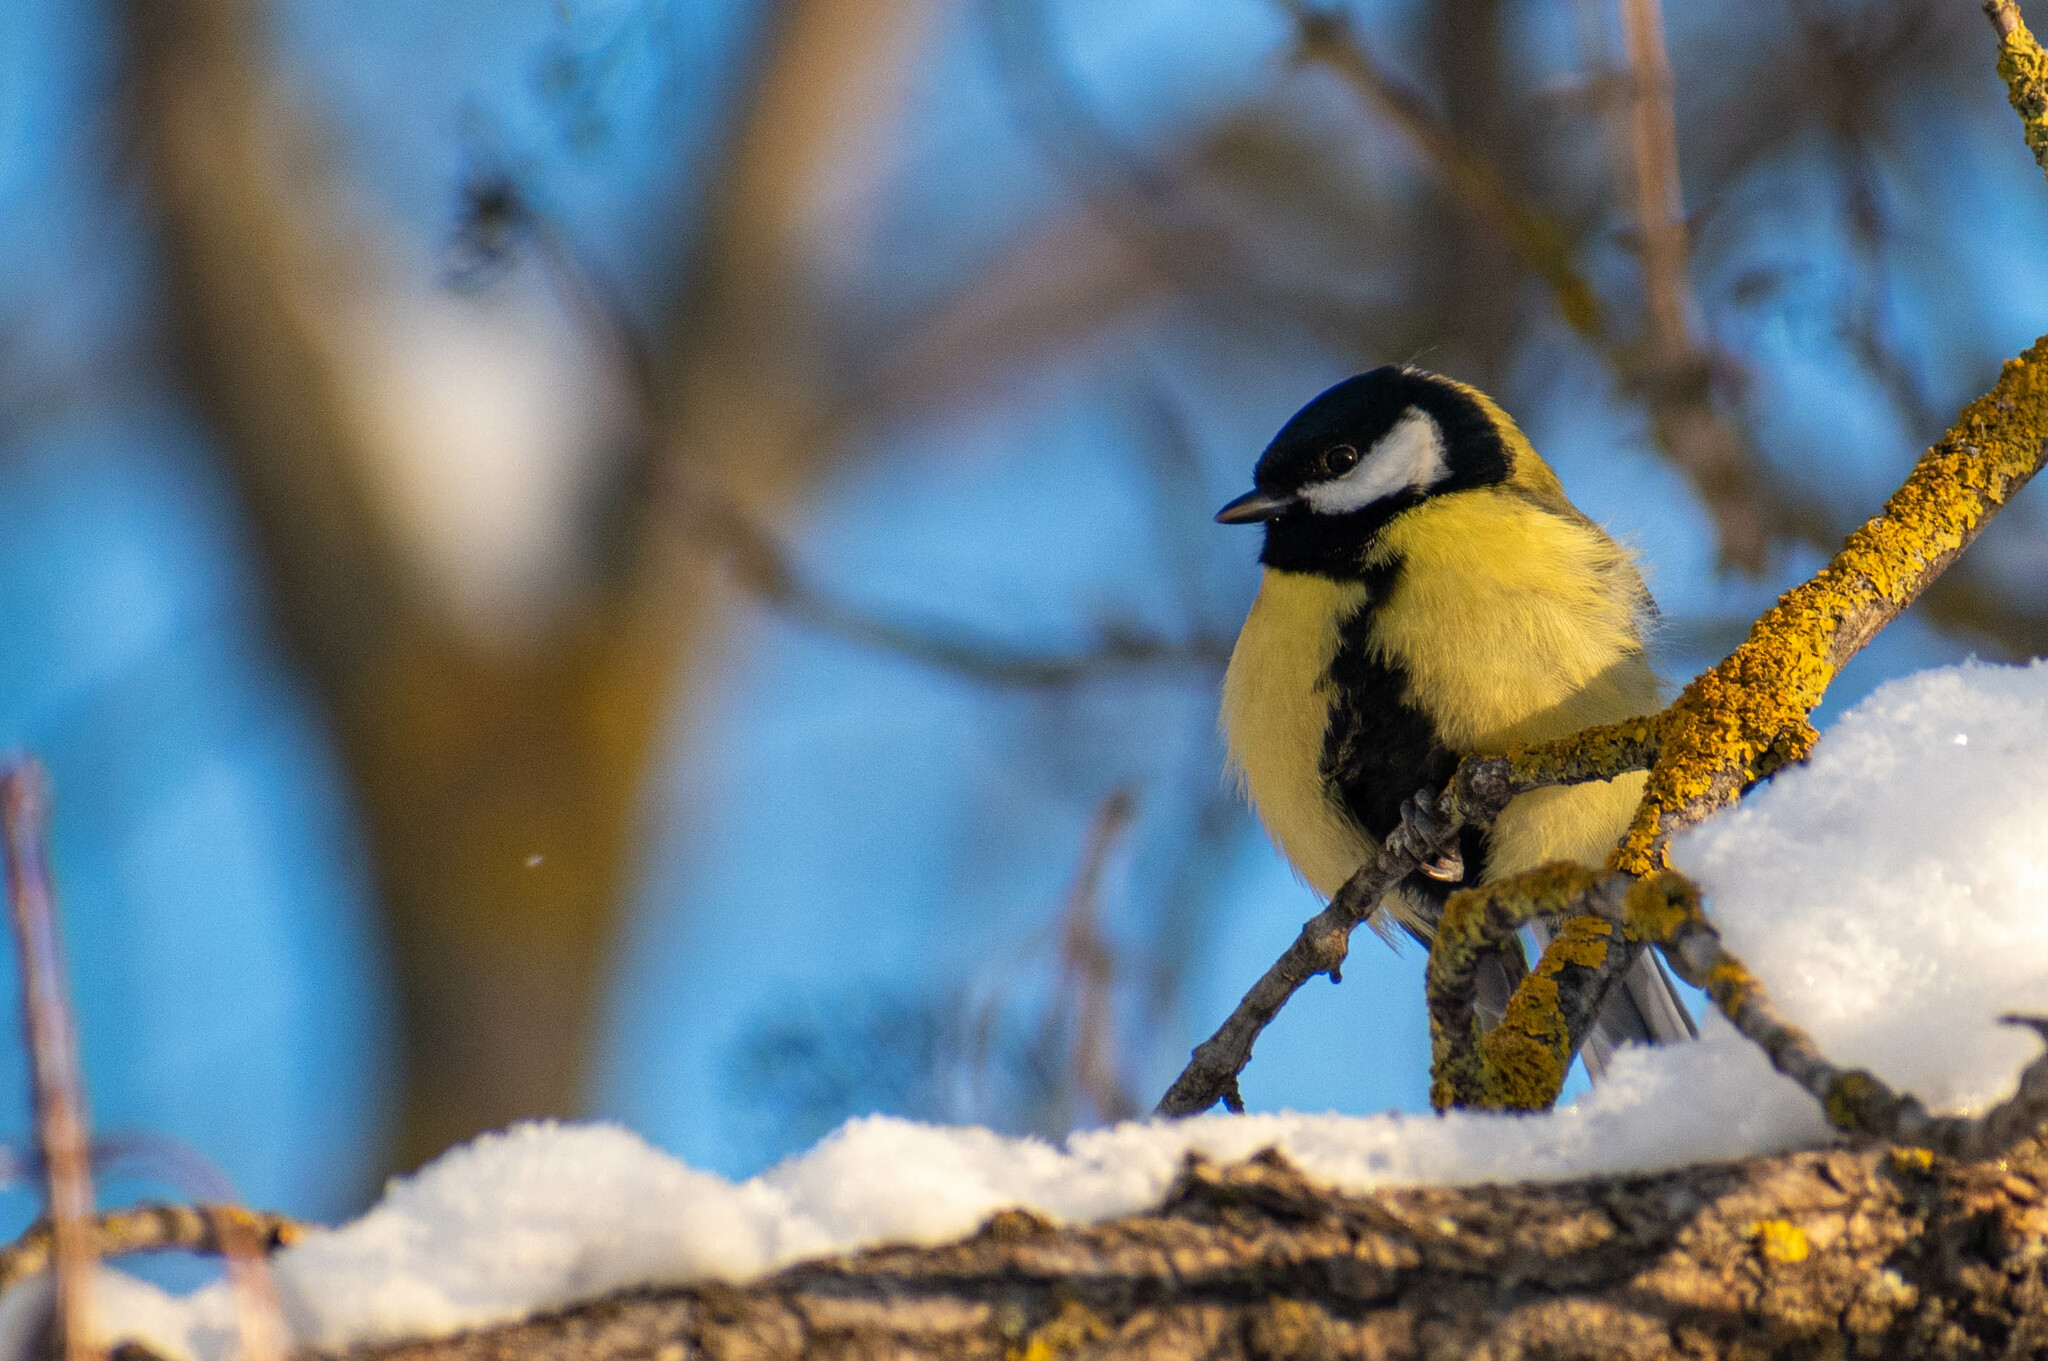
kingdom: Animalia
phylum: Chordata
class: Aves
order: Passeriformes
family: Paridae
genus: Parus
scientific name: Parus major
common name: Great tit
